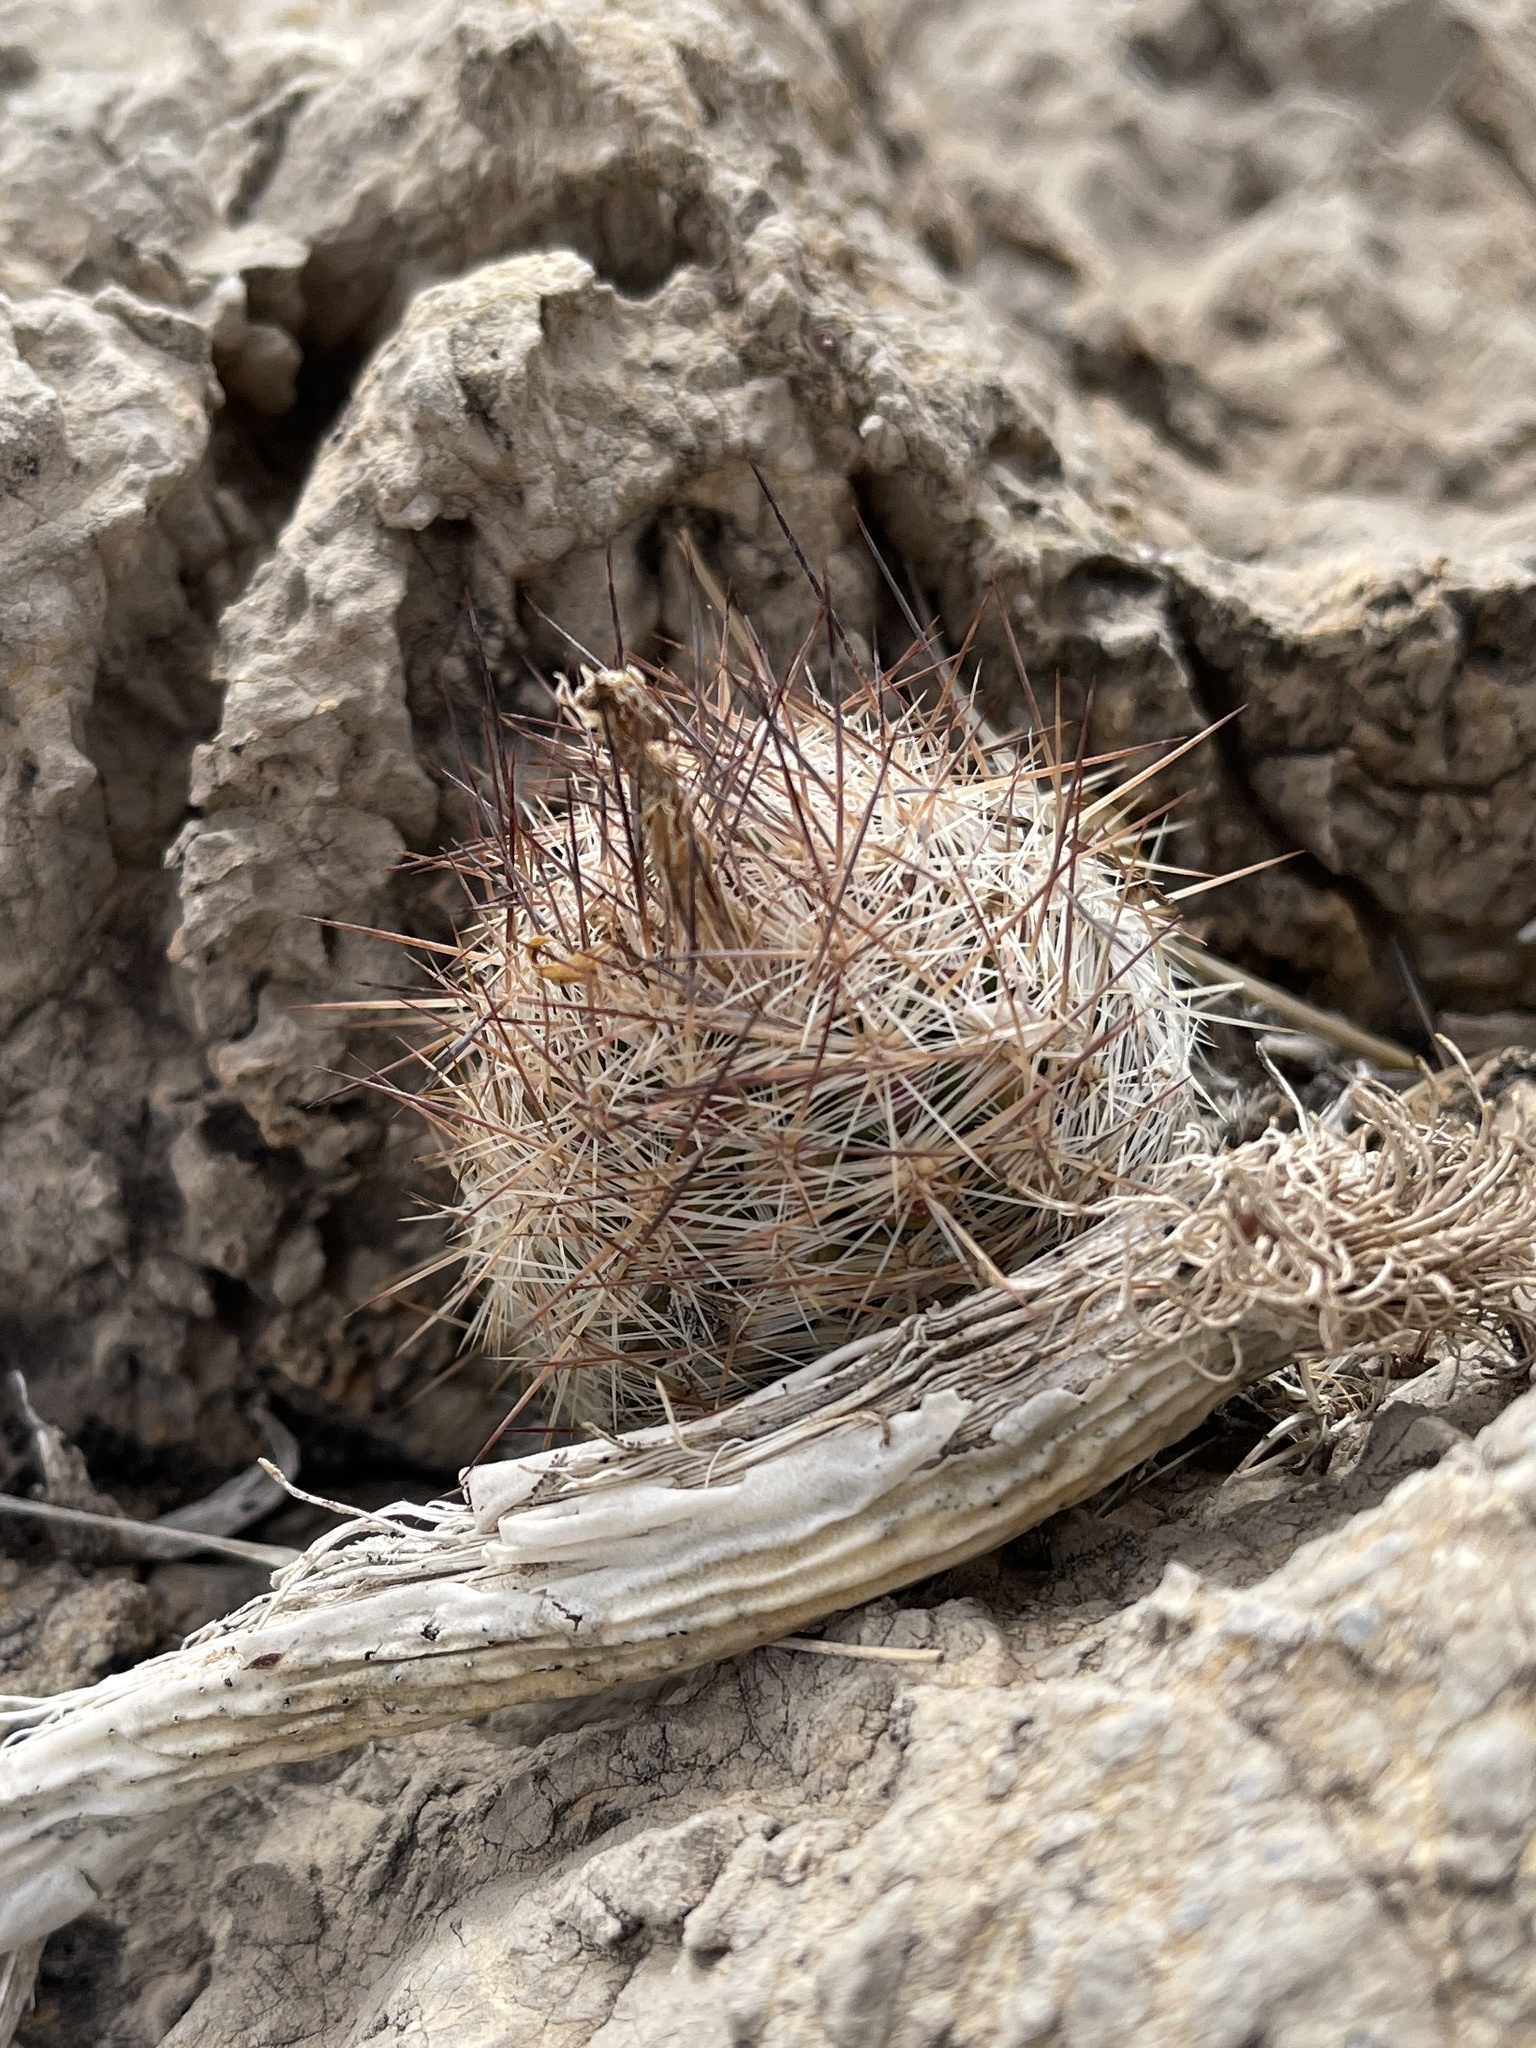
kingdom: Plantae
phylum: Tracheophyta
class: Magnoliopsida
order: Caryophyllales
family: Cactaceae
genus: Pelecyphora
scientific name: Pelecyphora tuberculosa
